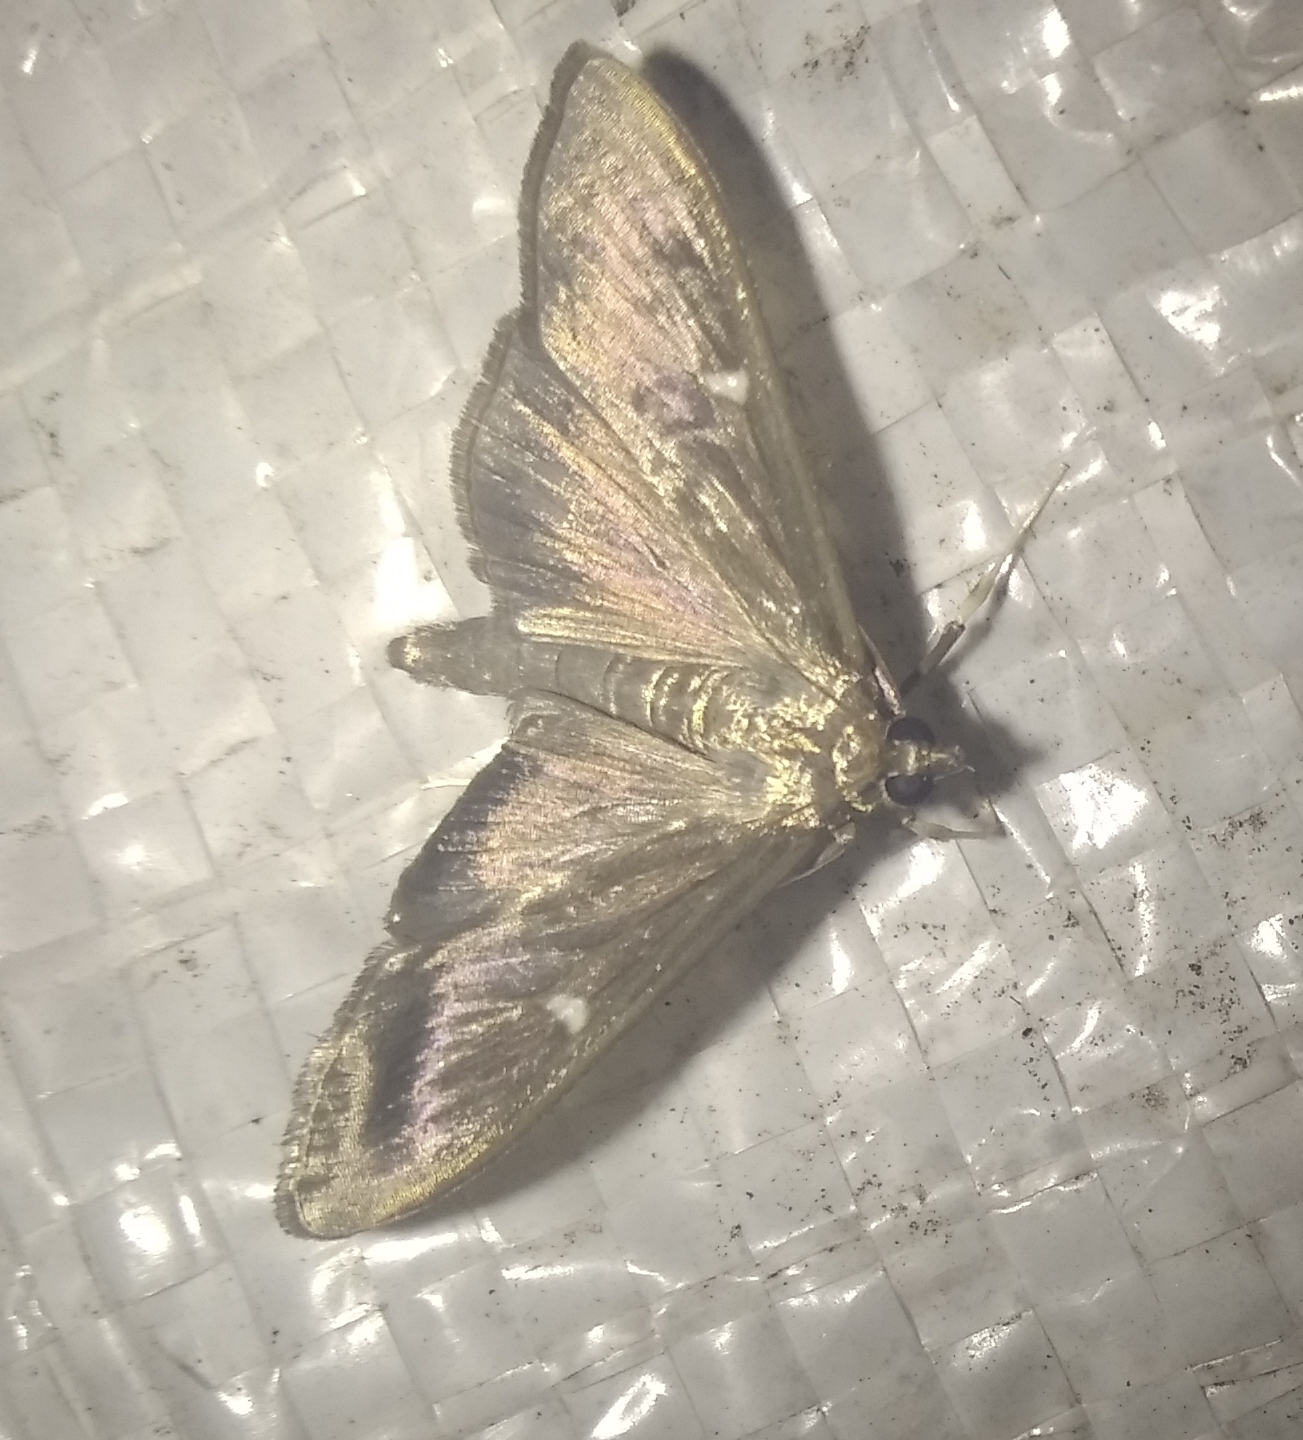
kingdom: Animalia
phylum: Arthropoda
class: Insecta
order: Lepidoptera
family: Crambidae
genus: Cydalima
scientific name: Cydalima perspectalis
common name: Box tree moth
